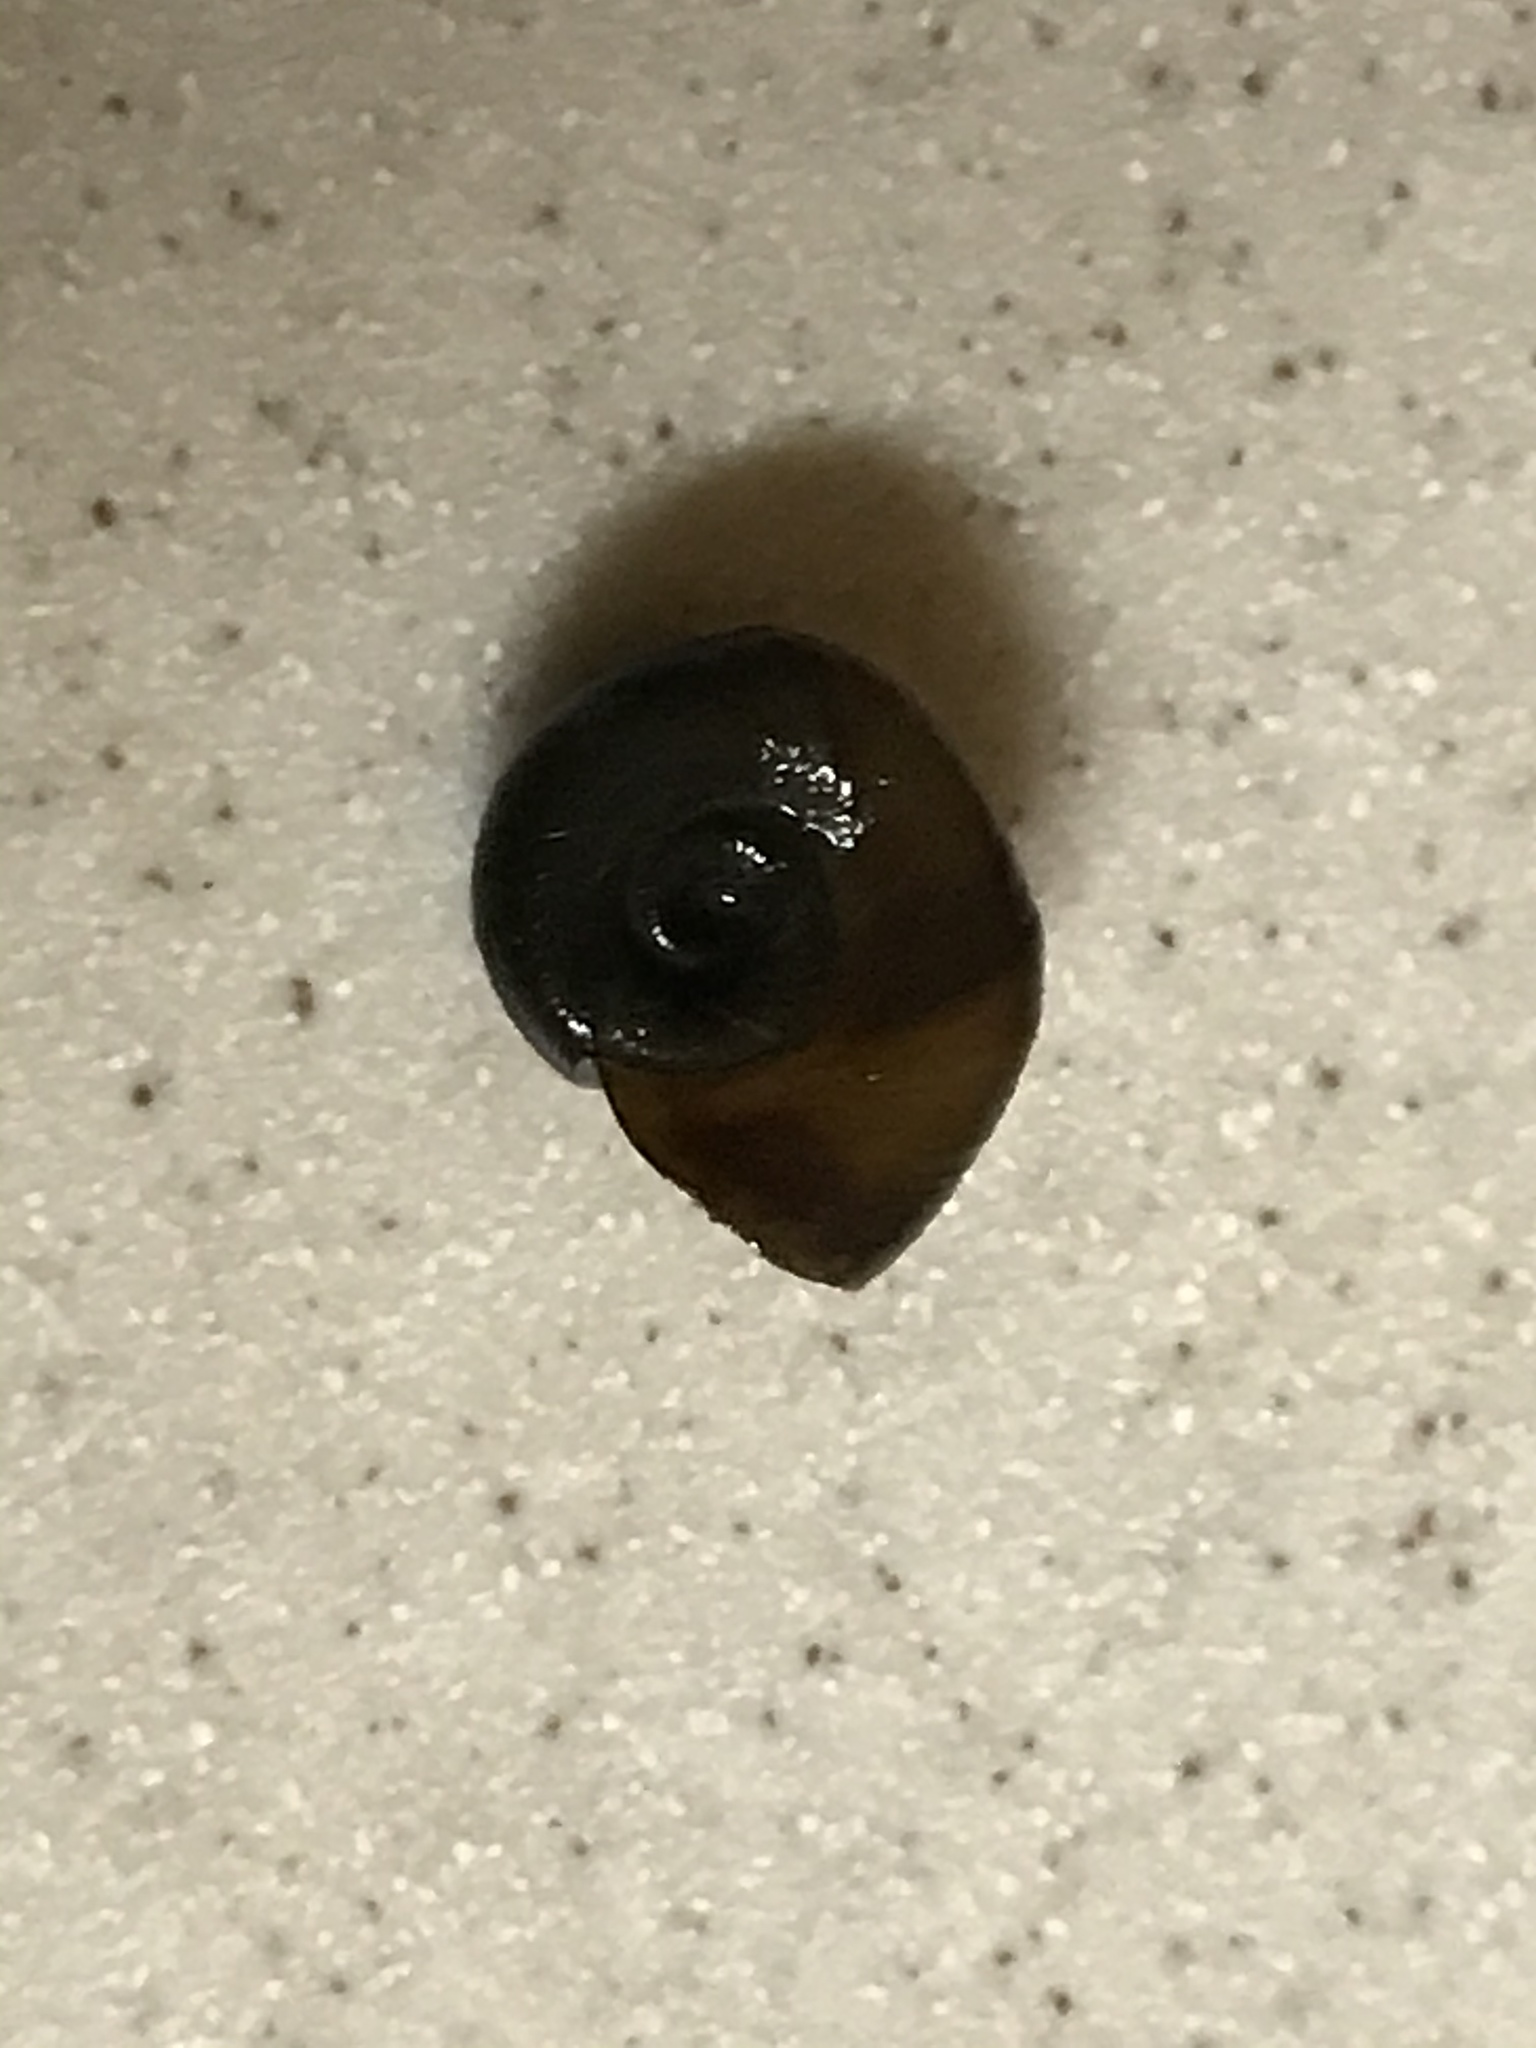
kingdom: Animalia
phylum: Mollusca
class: Gastropoda
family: Planorbidae
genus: Planorbella
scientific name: Planorbella trivolvis
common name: Marsh rams-horn
